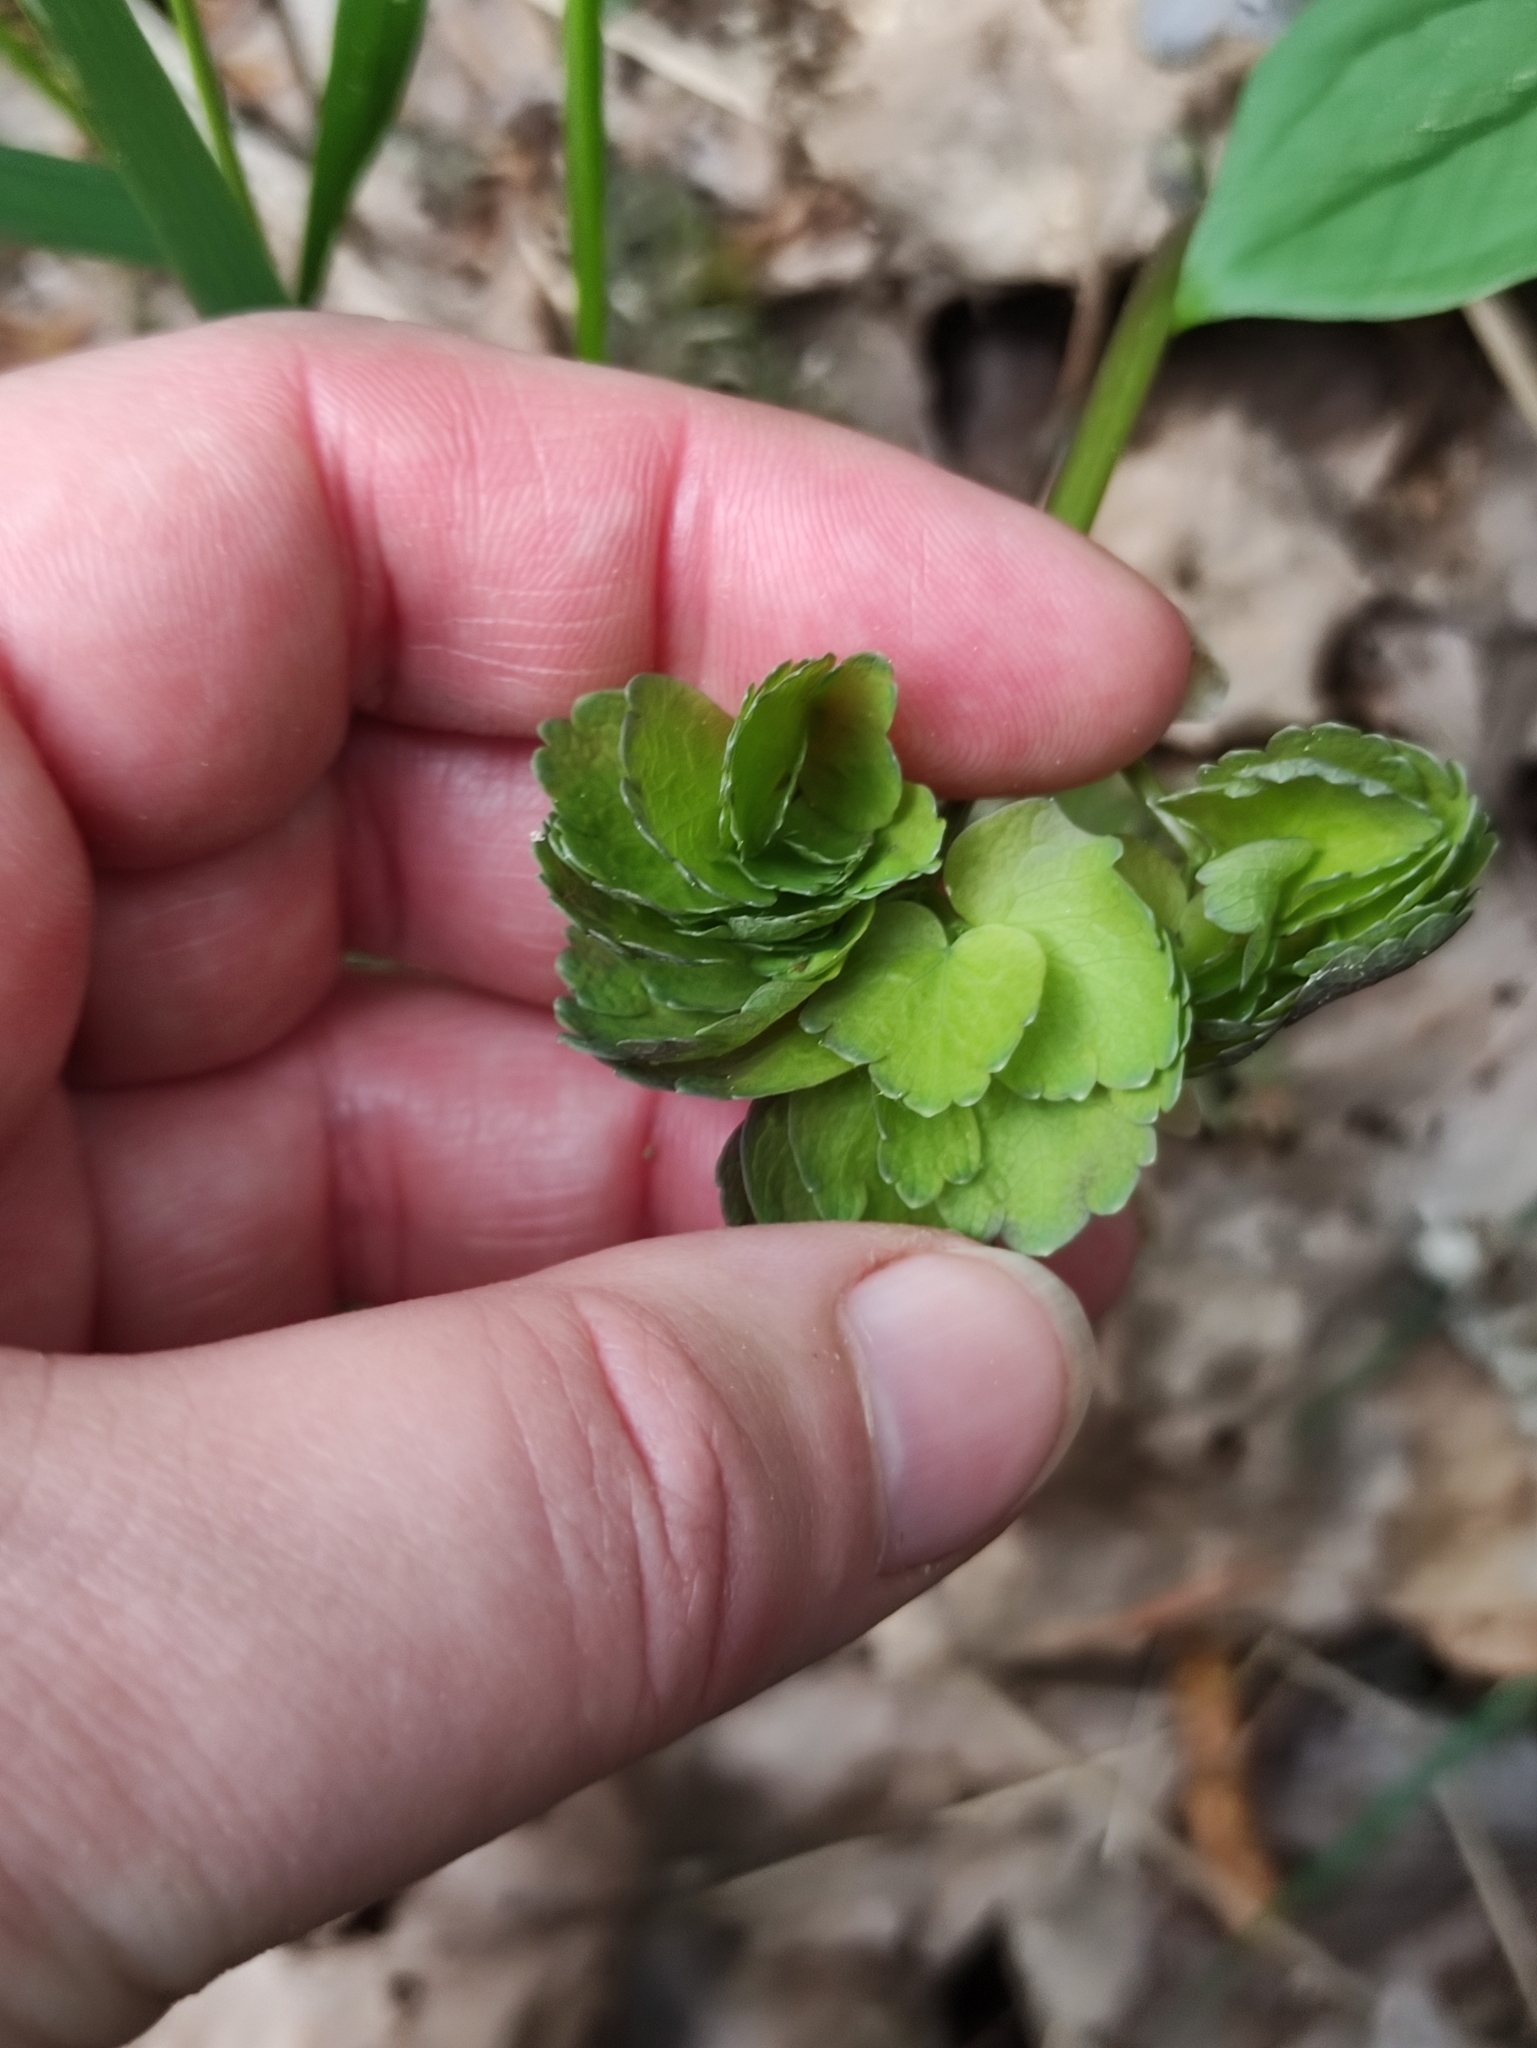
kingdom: Plantae
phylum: Tracheophyta
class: Magnoliopsida
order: Ranunculales
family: Ranunculaceae
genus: Thalictrum
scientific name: Thalictrum aquilegiifolium
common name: French meadow-rue
